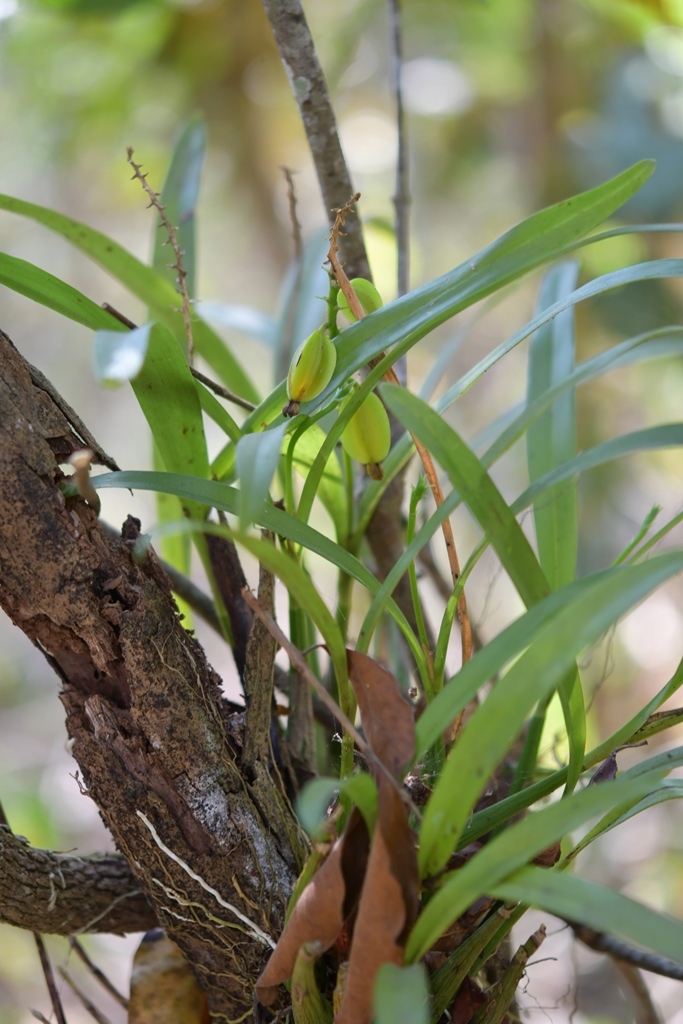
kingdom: Plantae
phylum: Tracheophyta
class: Liliopsida
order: Asparagales
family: Orchidaceae
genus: Prosthechea
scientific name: Prosthechea guttata
